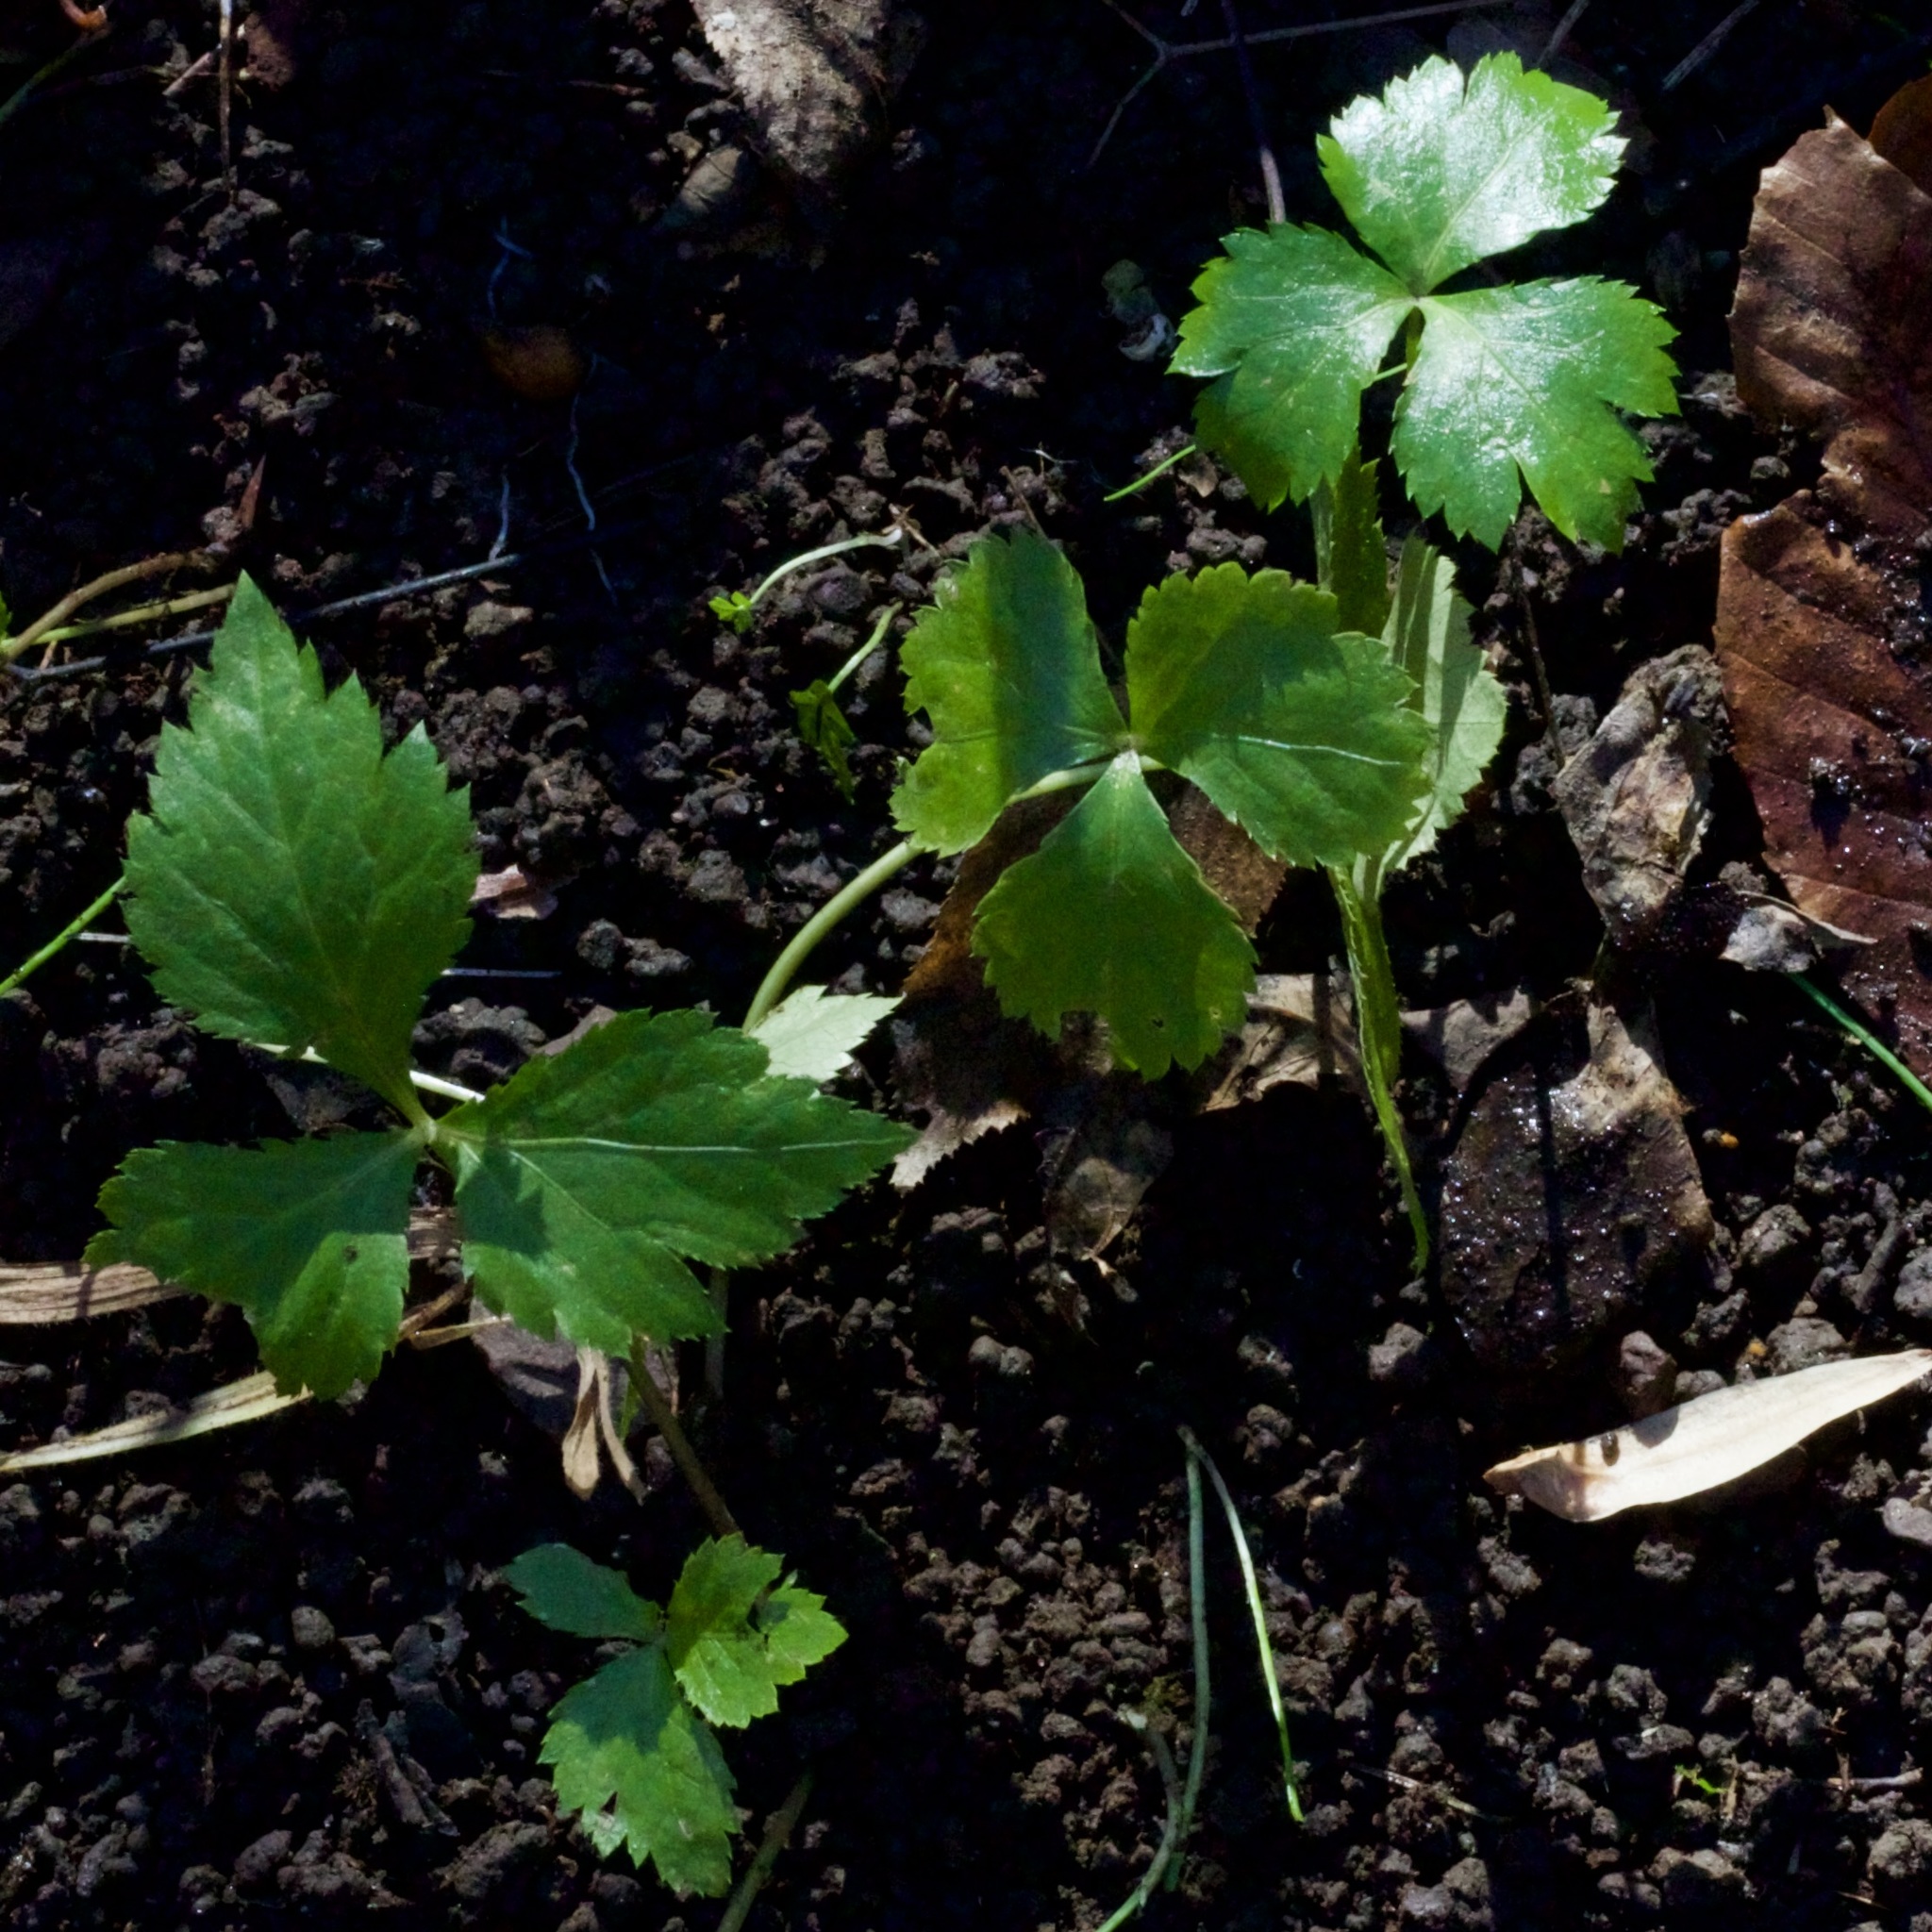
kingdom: Plantae
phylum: Tracheophyta
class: Magnoliopsida
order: Apiales
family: Apiaceae
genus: Cryptotaenia
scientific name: Cryptotaenia canadensis
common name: Honewort
